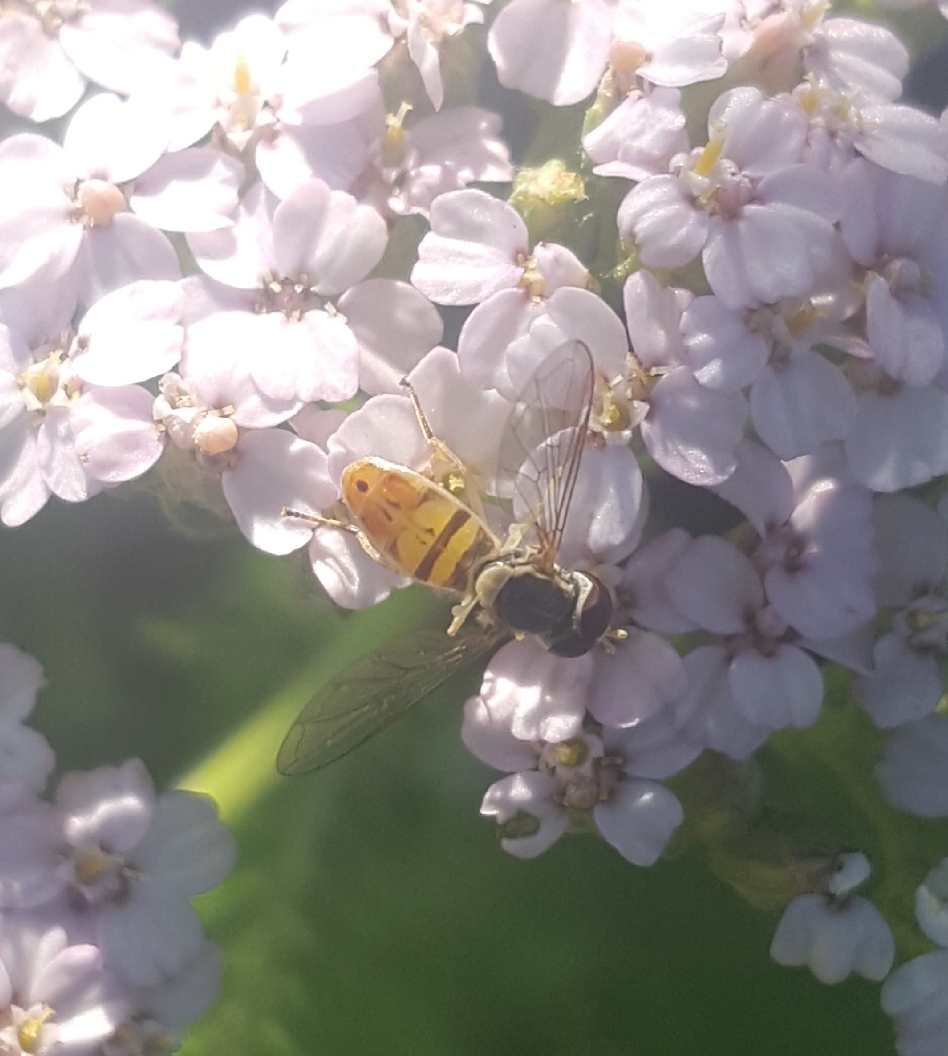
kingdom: Animalia
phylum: Arthropoda
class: Insecta
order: Diptera
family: Syrphidae
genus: Toxomerus
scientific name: Toxomerus marginatus
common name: Syrphid fly
